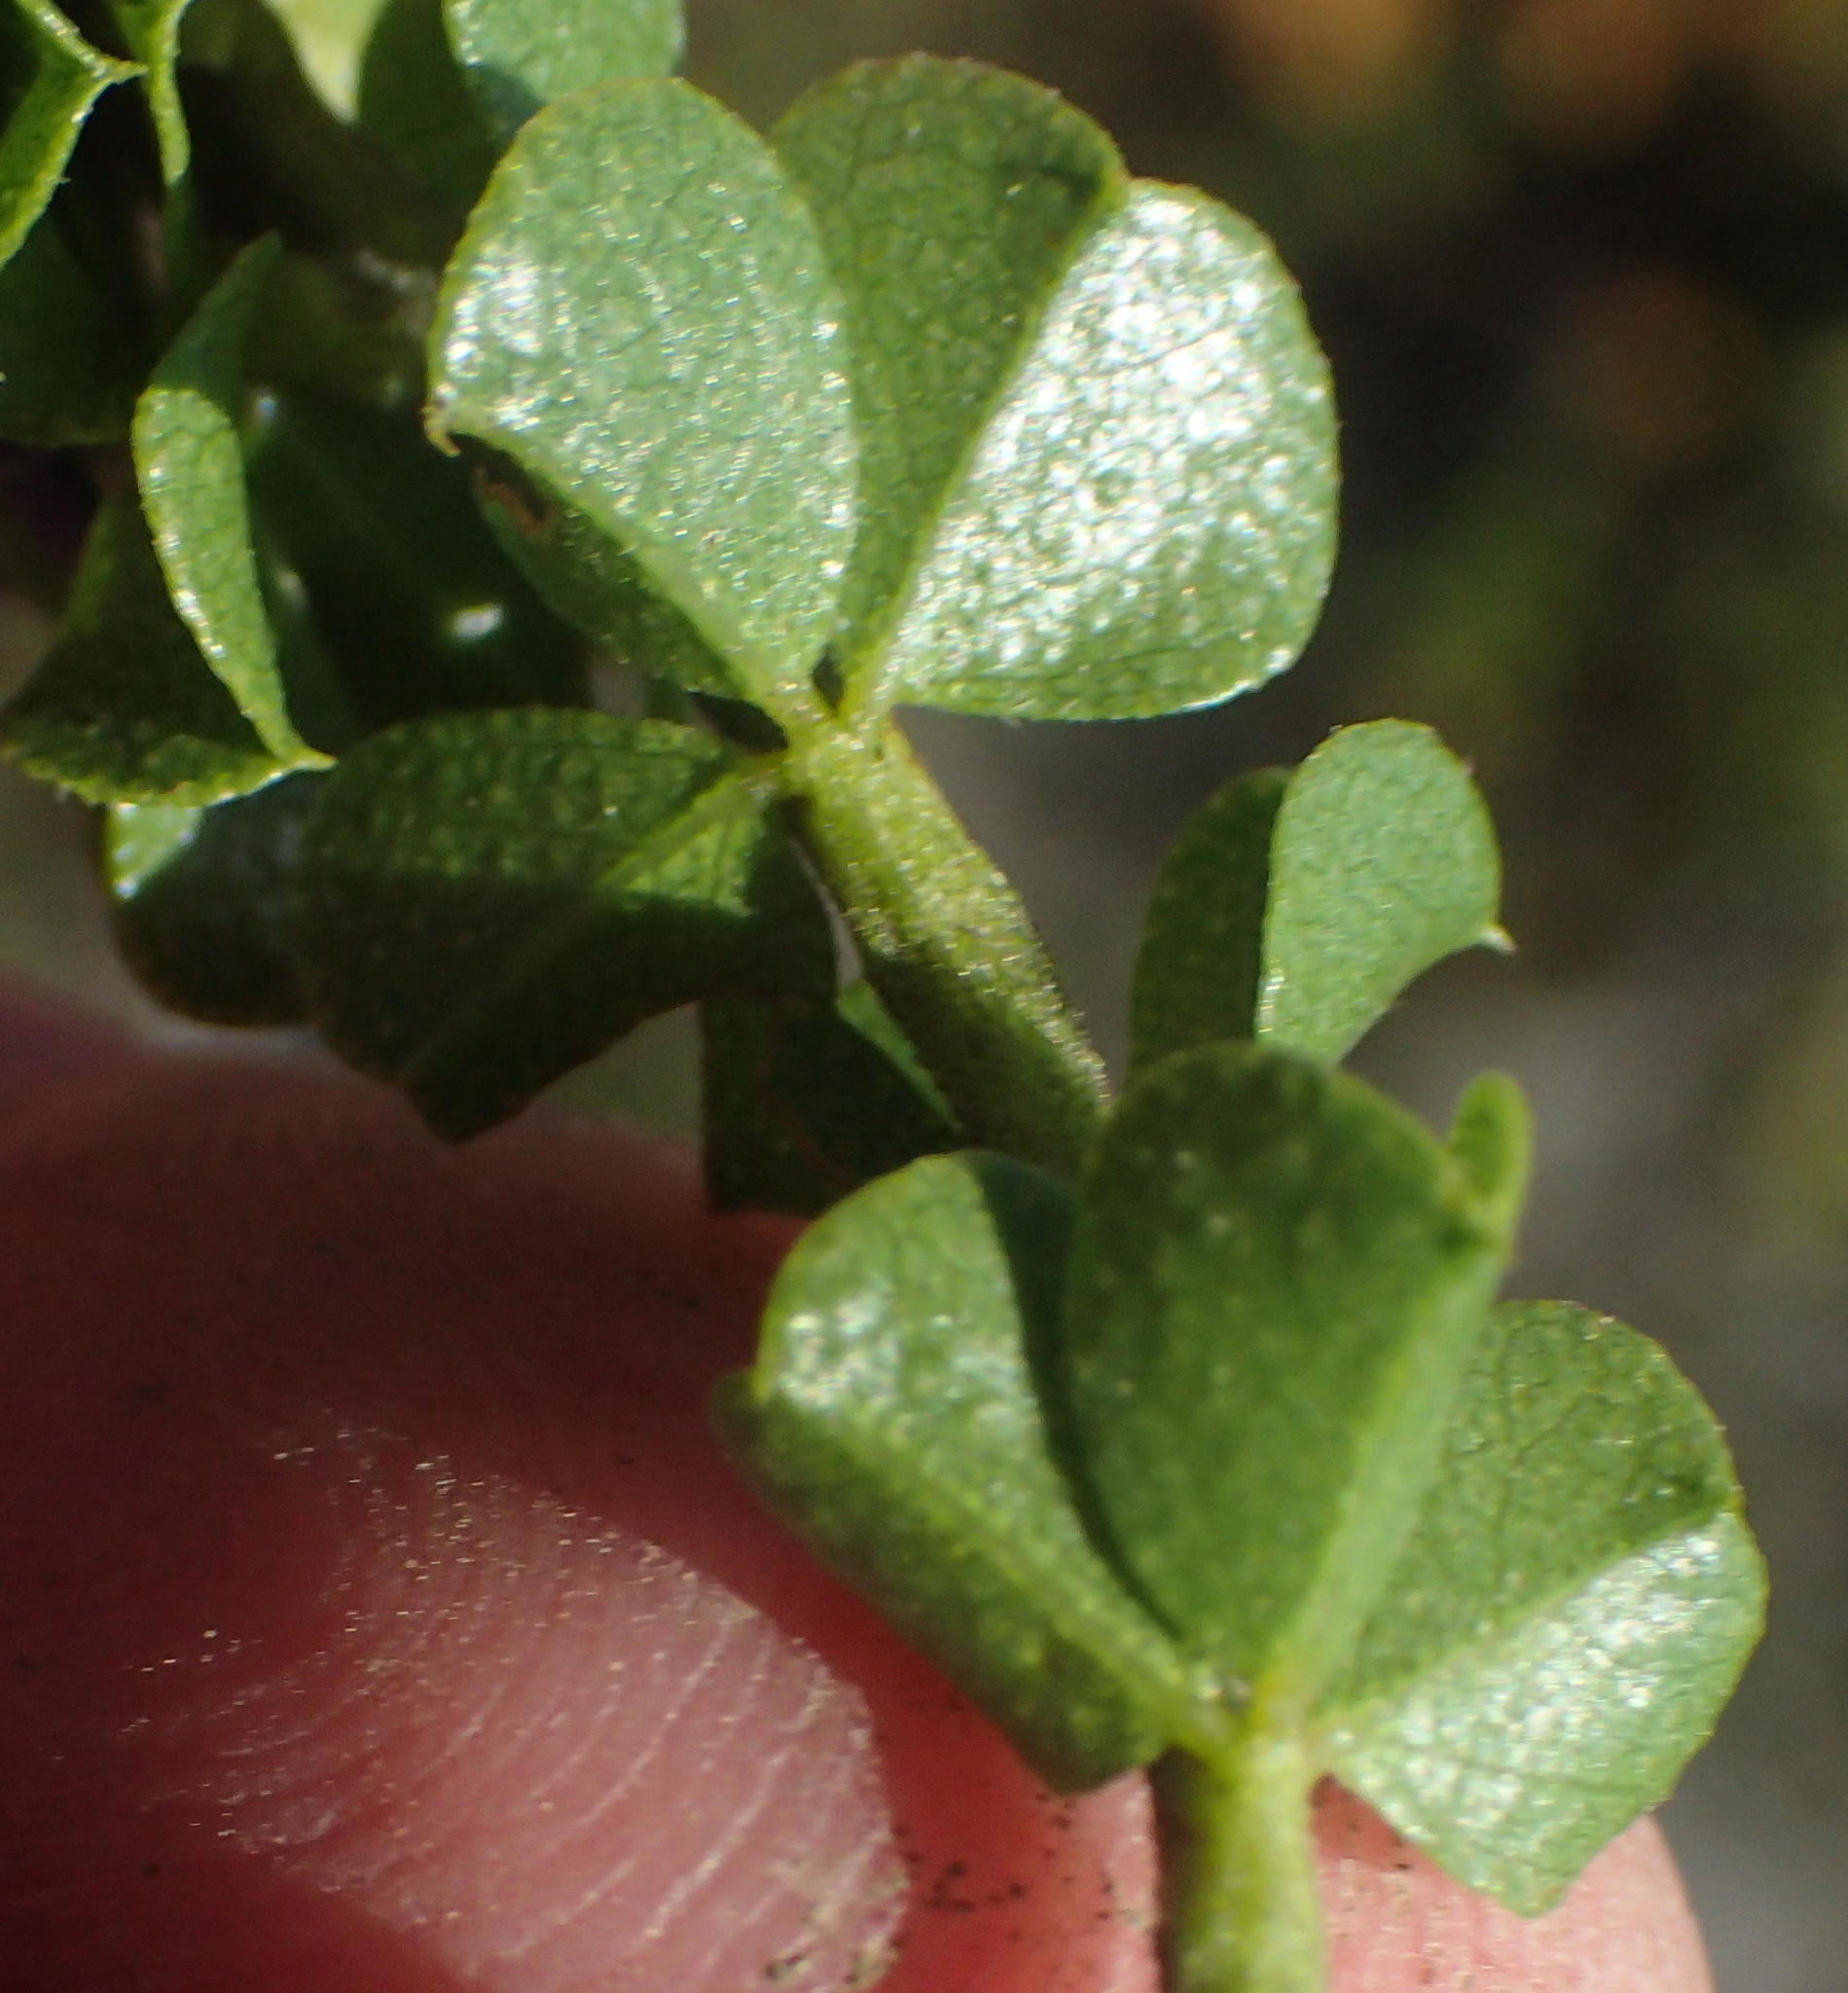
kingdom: Plantae
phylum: Tracheophyta
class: Magnoliopsida
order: Fabales
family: Fabaceae
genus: Psoralea
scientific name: Psoralea acuminata
